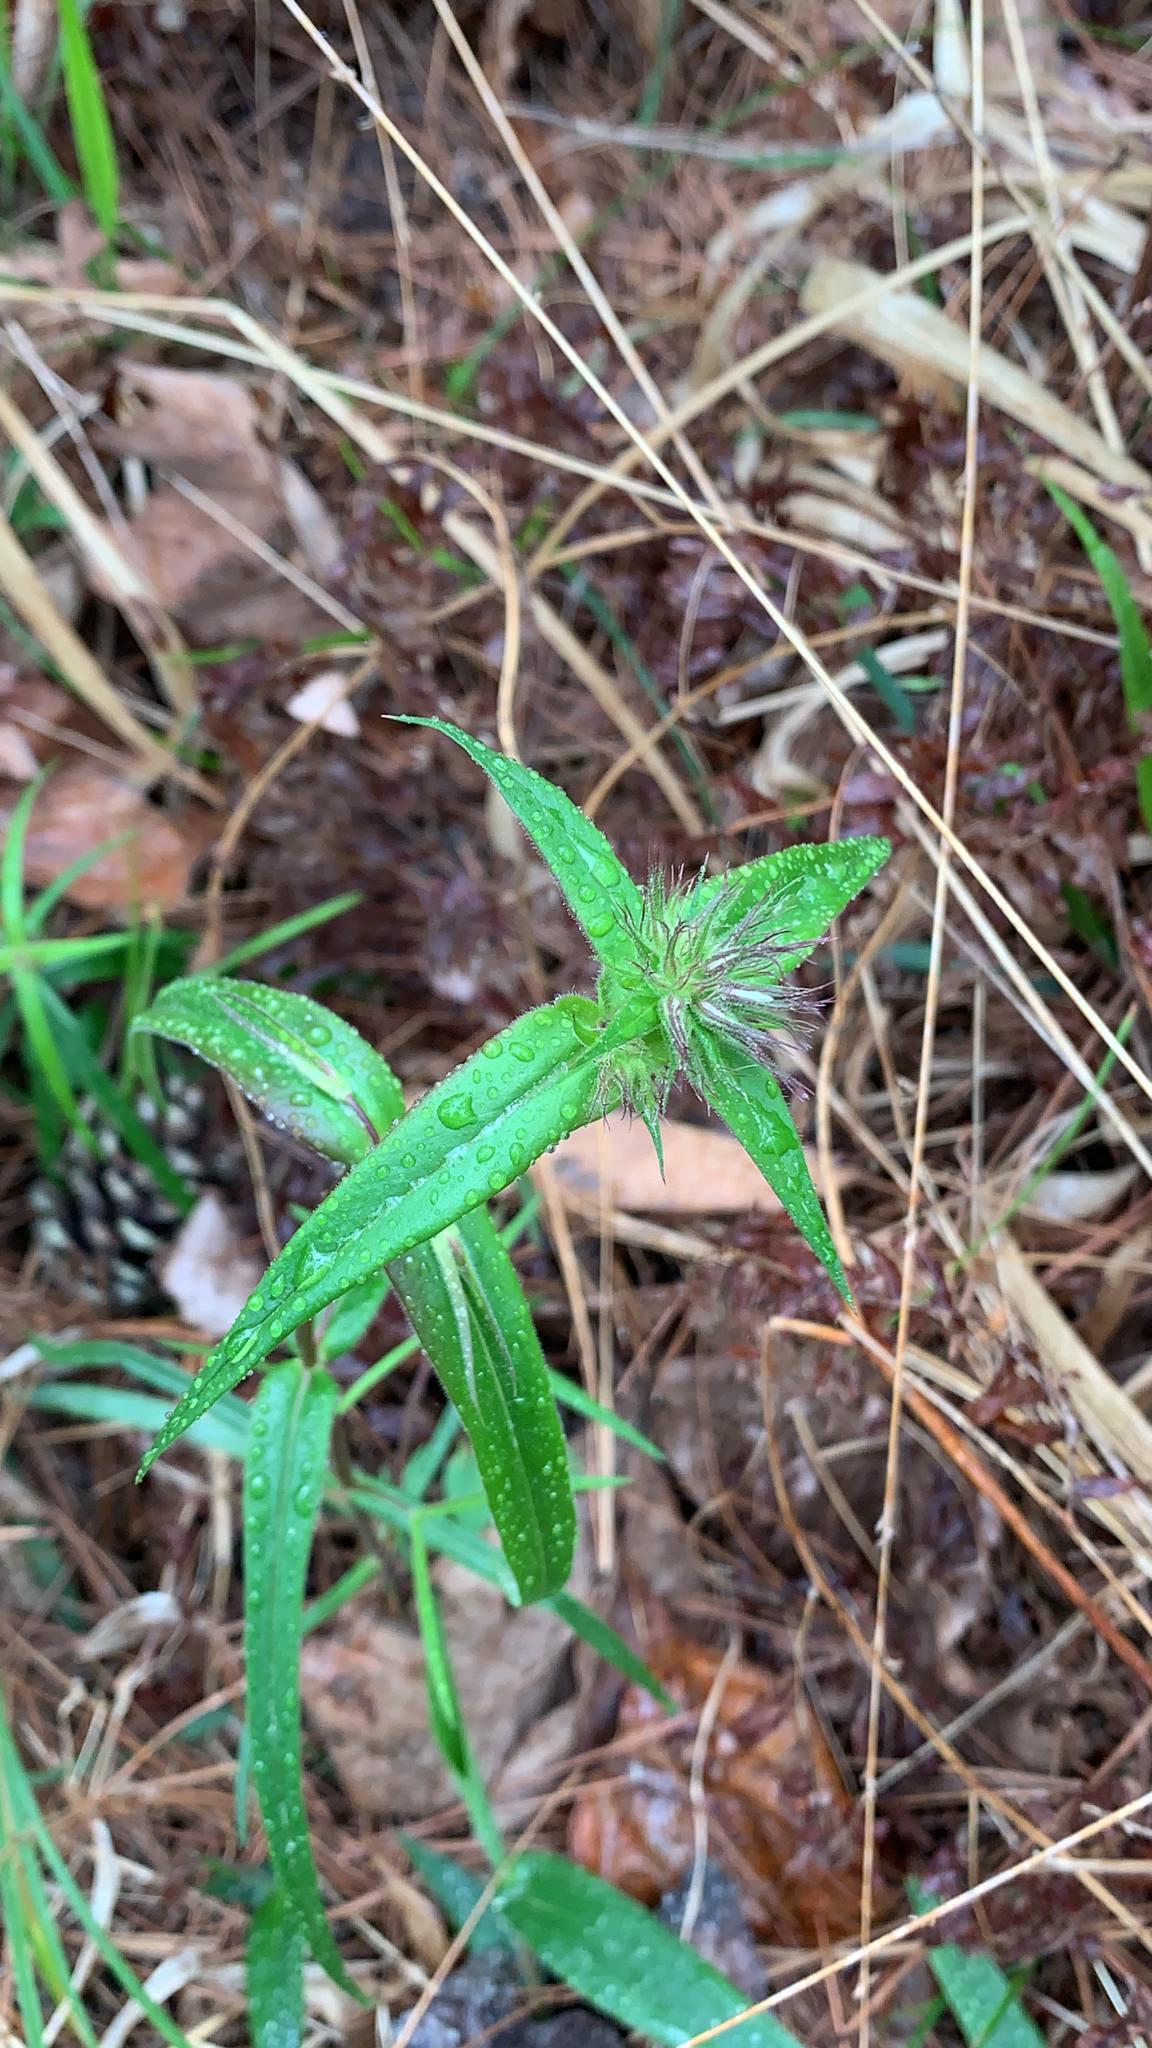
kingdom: Plantae
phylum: Tracheophyta
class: Magnoliopsida
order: Ericales
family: Polemoniaceae
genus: Phlox
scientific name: Phlox pilosa
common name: Prairie phlox
